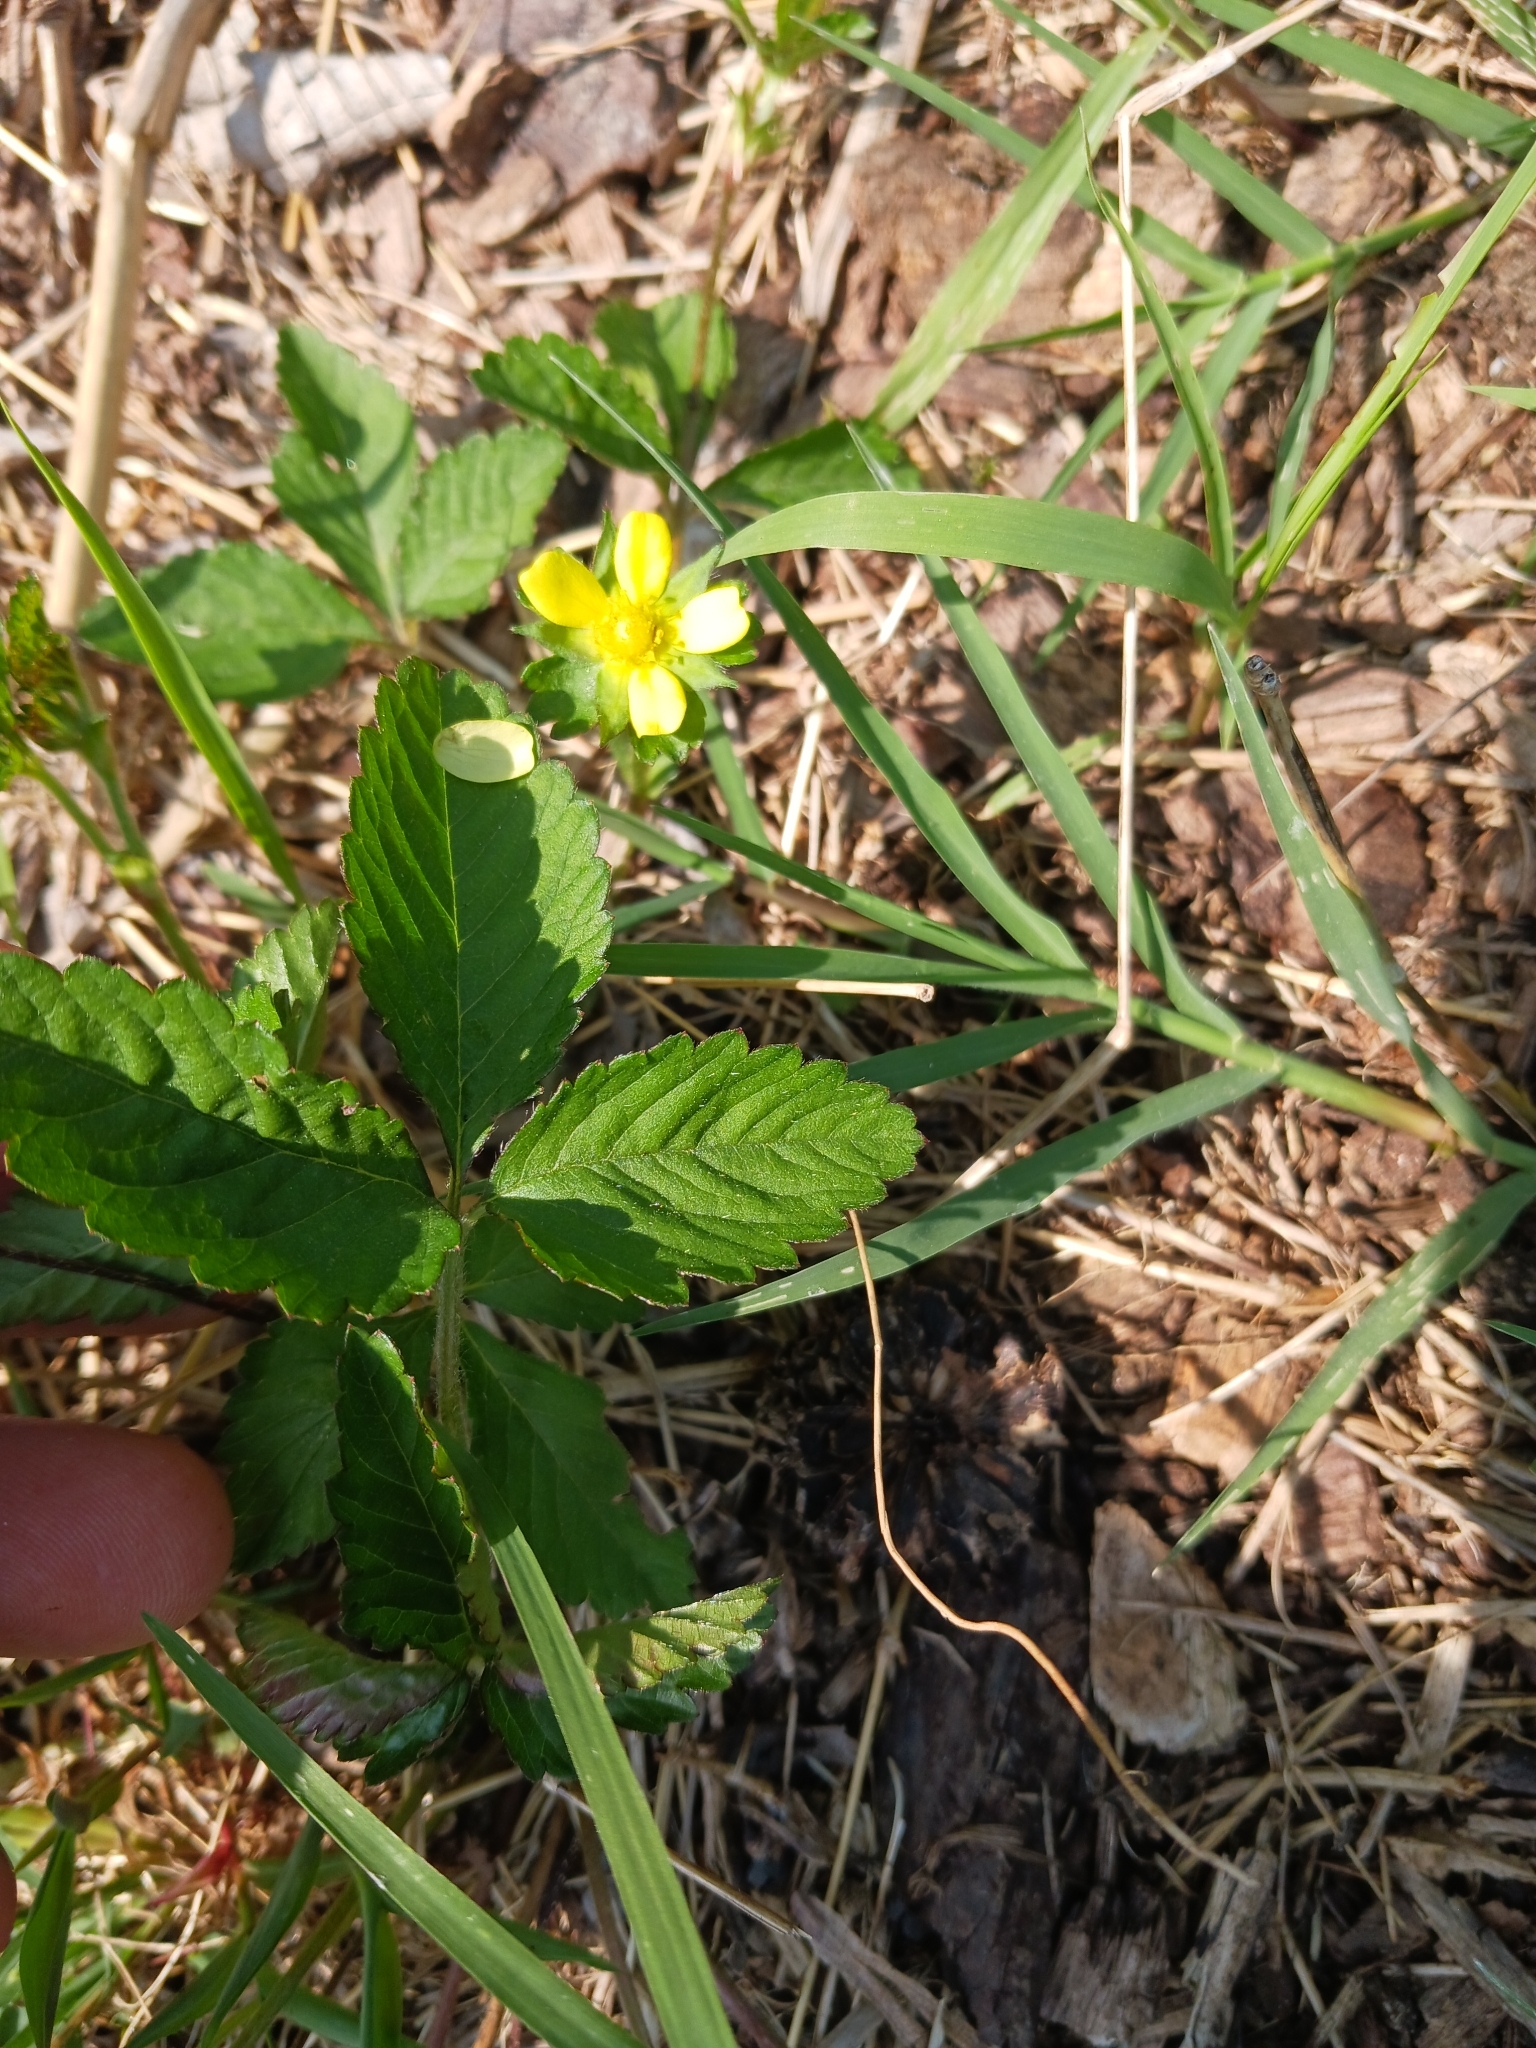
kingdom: Plantae
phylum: Tracheophyta
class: Magnoliopsida
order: Rosales
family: Rosaceae
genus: Potentilla
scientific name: Potentilla indica
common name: Yellow-flowered strawberry
